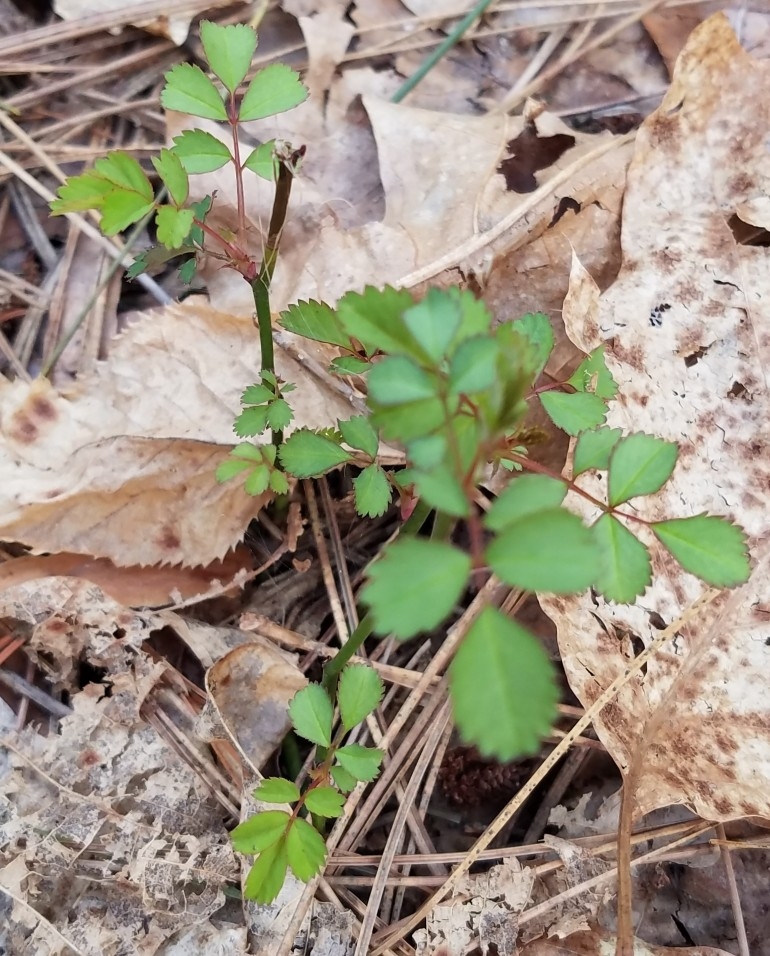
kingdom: Plantae
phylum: Tracheophyta
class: Magnoliopsida
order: Rosales
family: Rosaceae
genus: Rosa
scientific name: Rosa multiflora
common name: Multiflora rose
